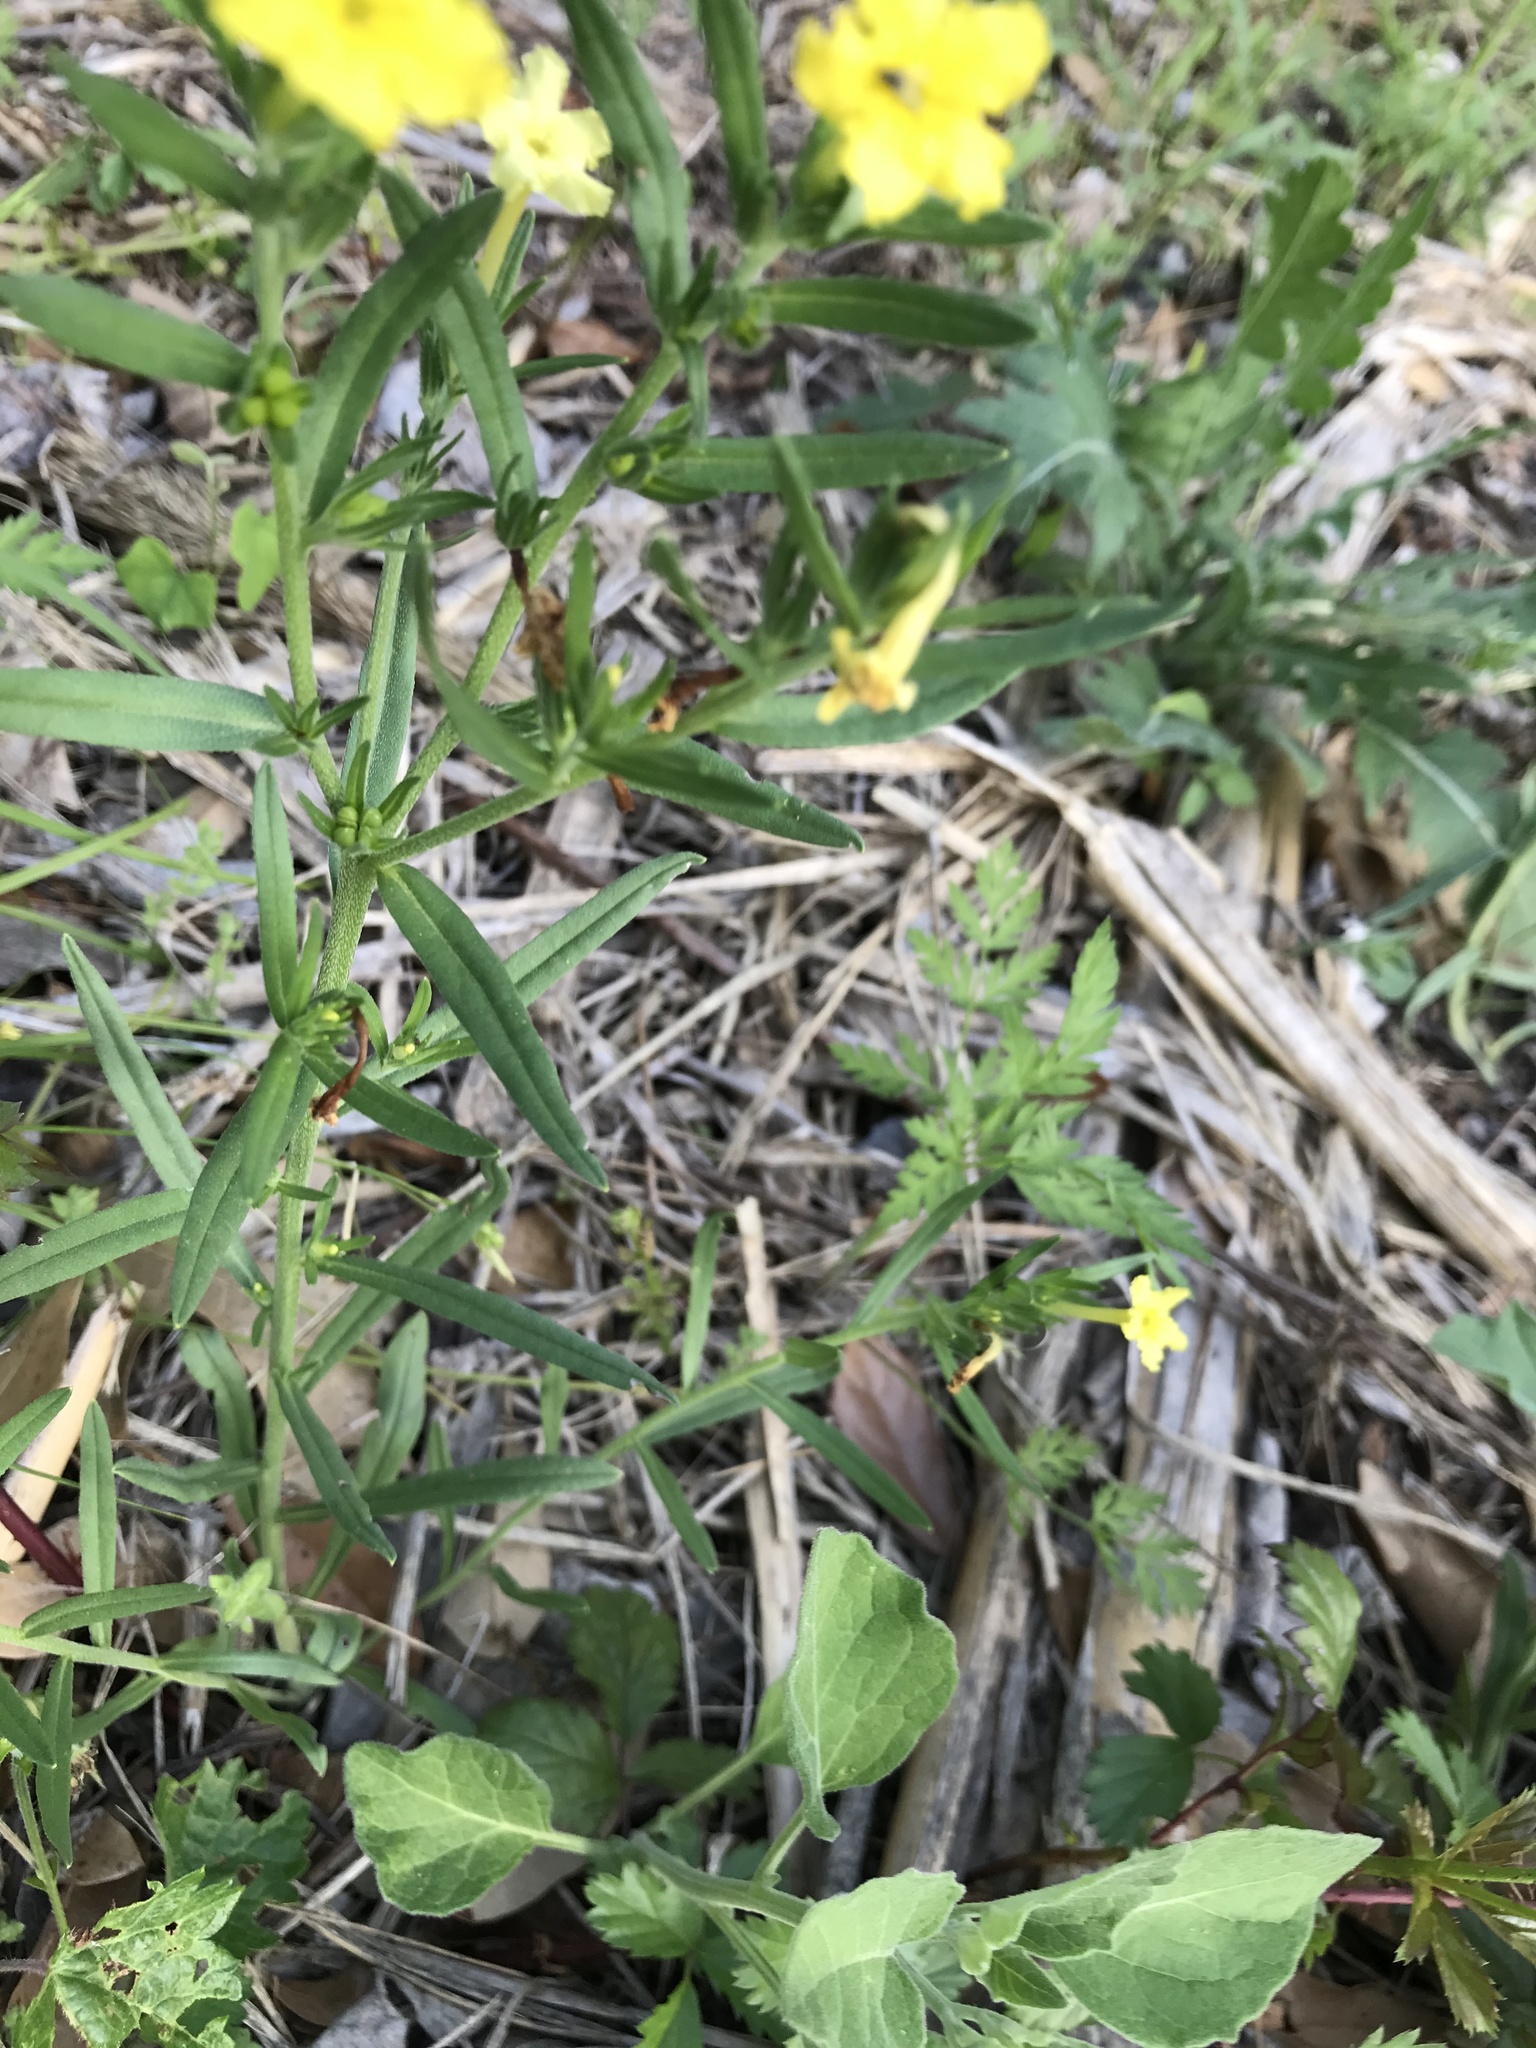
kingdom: Plantae
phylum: Tracheophyta
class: Magnoliopsida
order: Boraginales
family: Boraginaceae
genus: Lithospermum
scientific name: Lithospermum incisum
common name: Fringed gromwell
